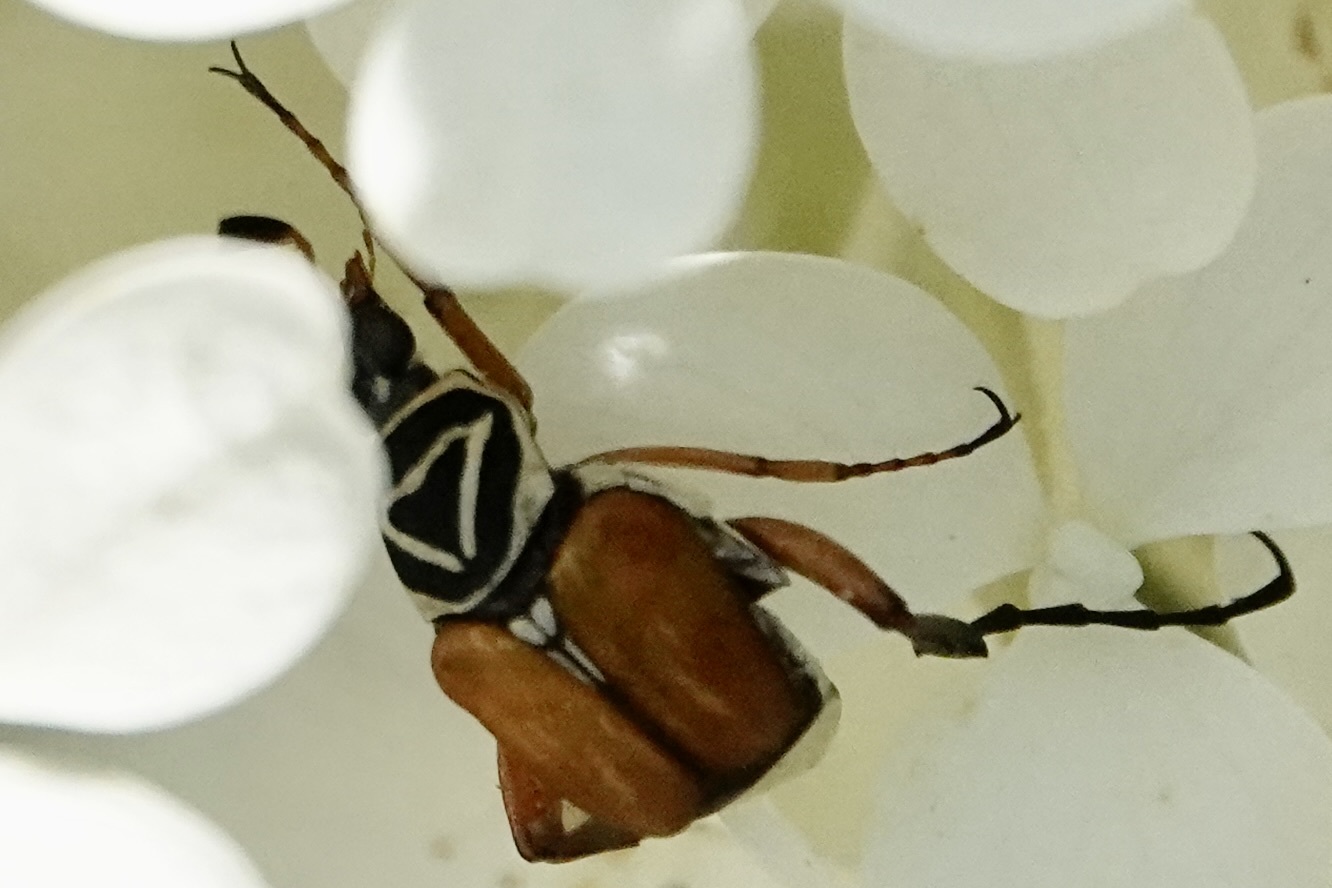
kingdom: Animalia
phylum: Arthropoda
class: Insecta
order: Coleoptera
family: Scarabaeidae
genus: Trigonopeltastes
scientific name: Trigonopeltastes delta
